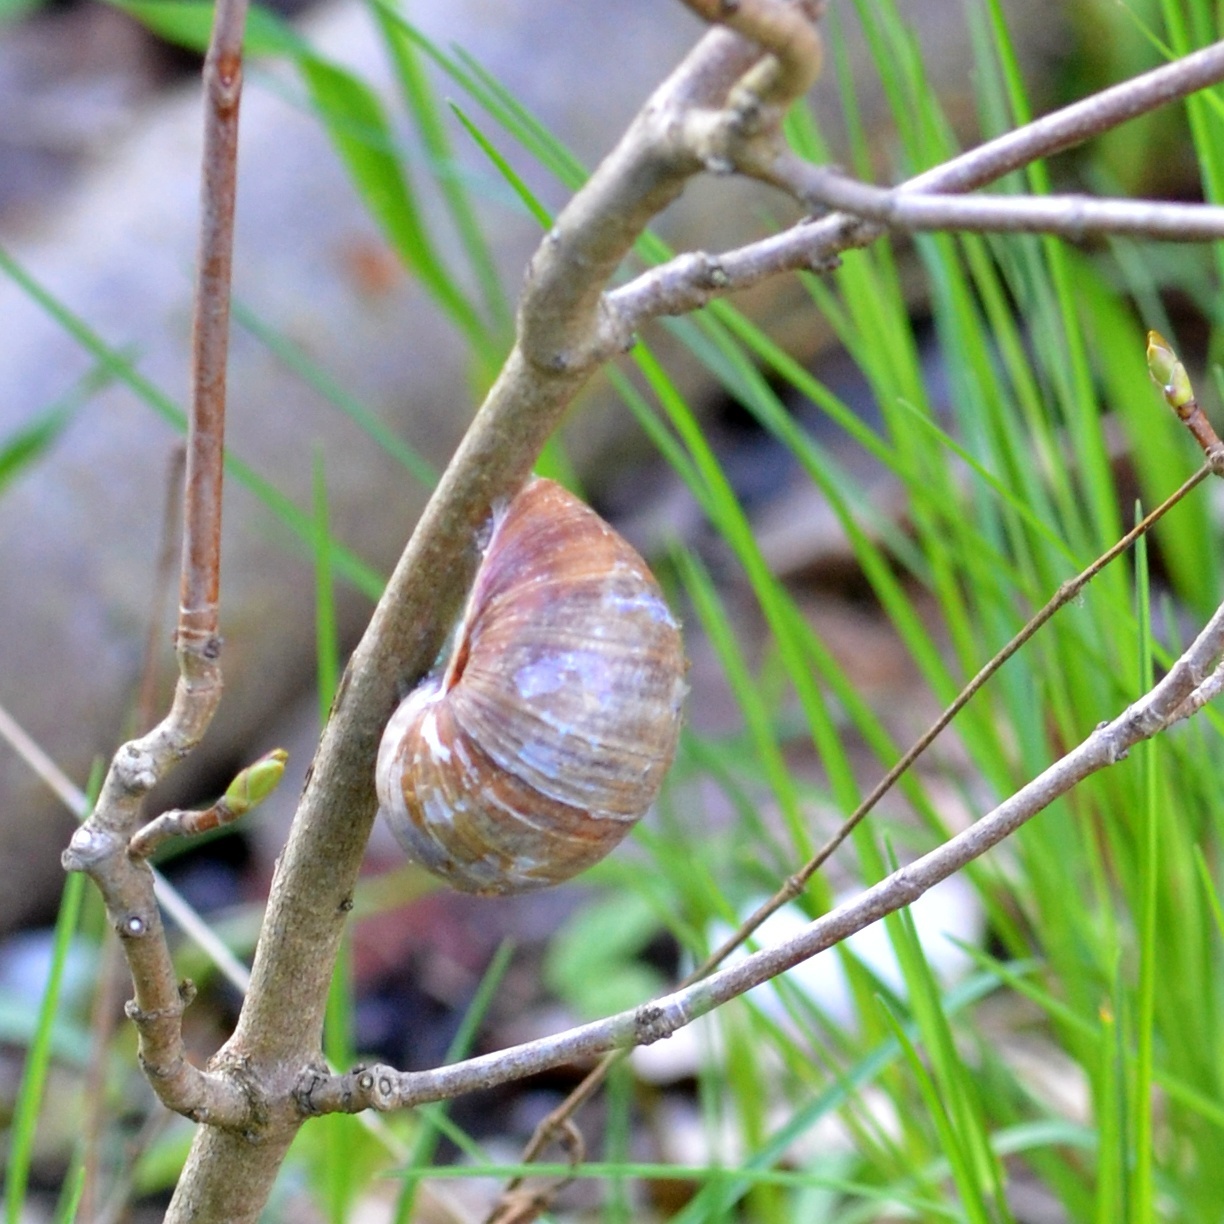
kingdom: Animalia
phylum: Mollusca
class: Gastropoda
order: Stylommatophora
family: Helicidae
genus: Helix
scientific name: Helix pomatia
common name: Roman snail
